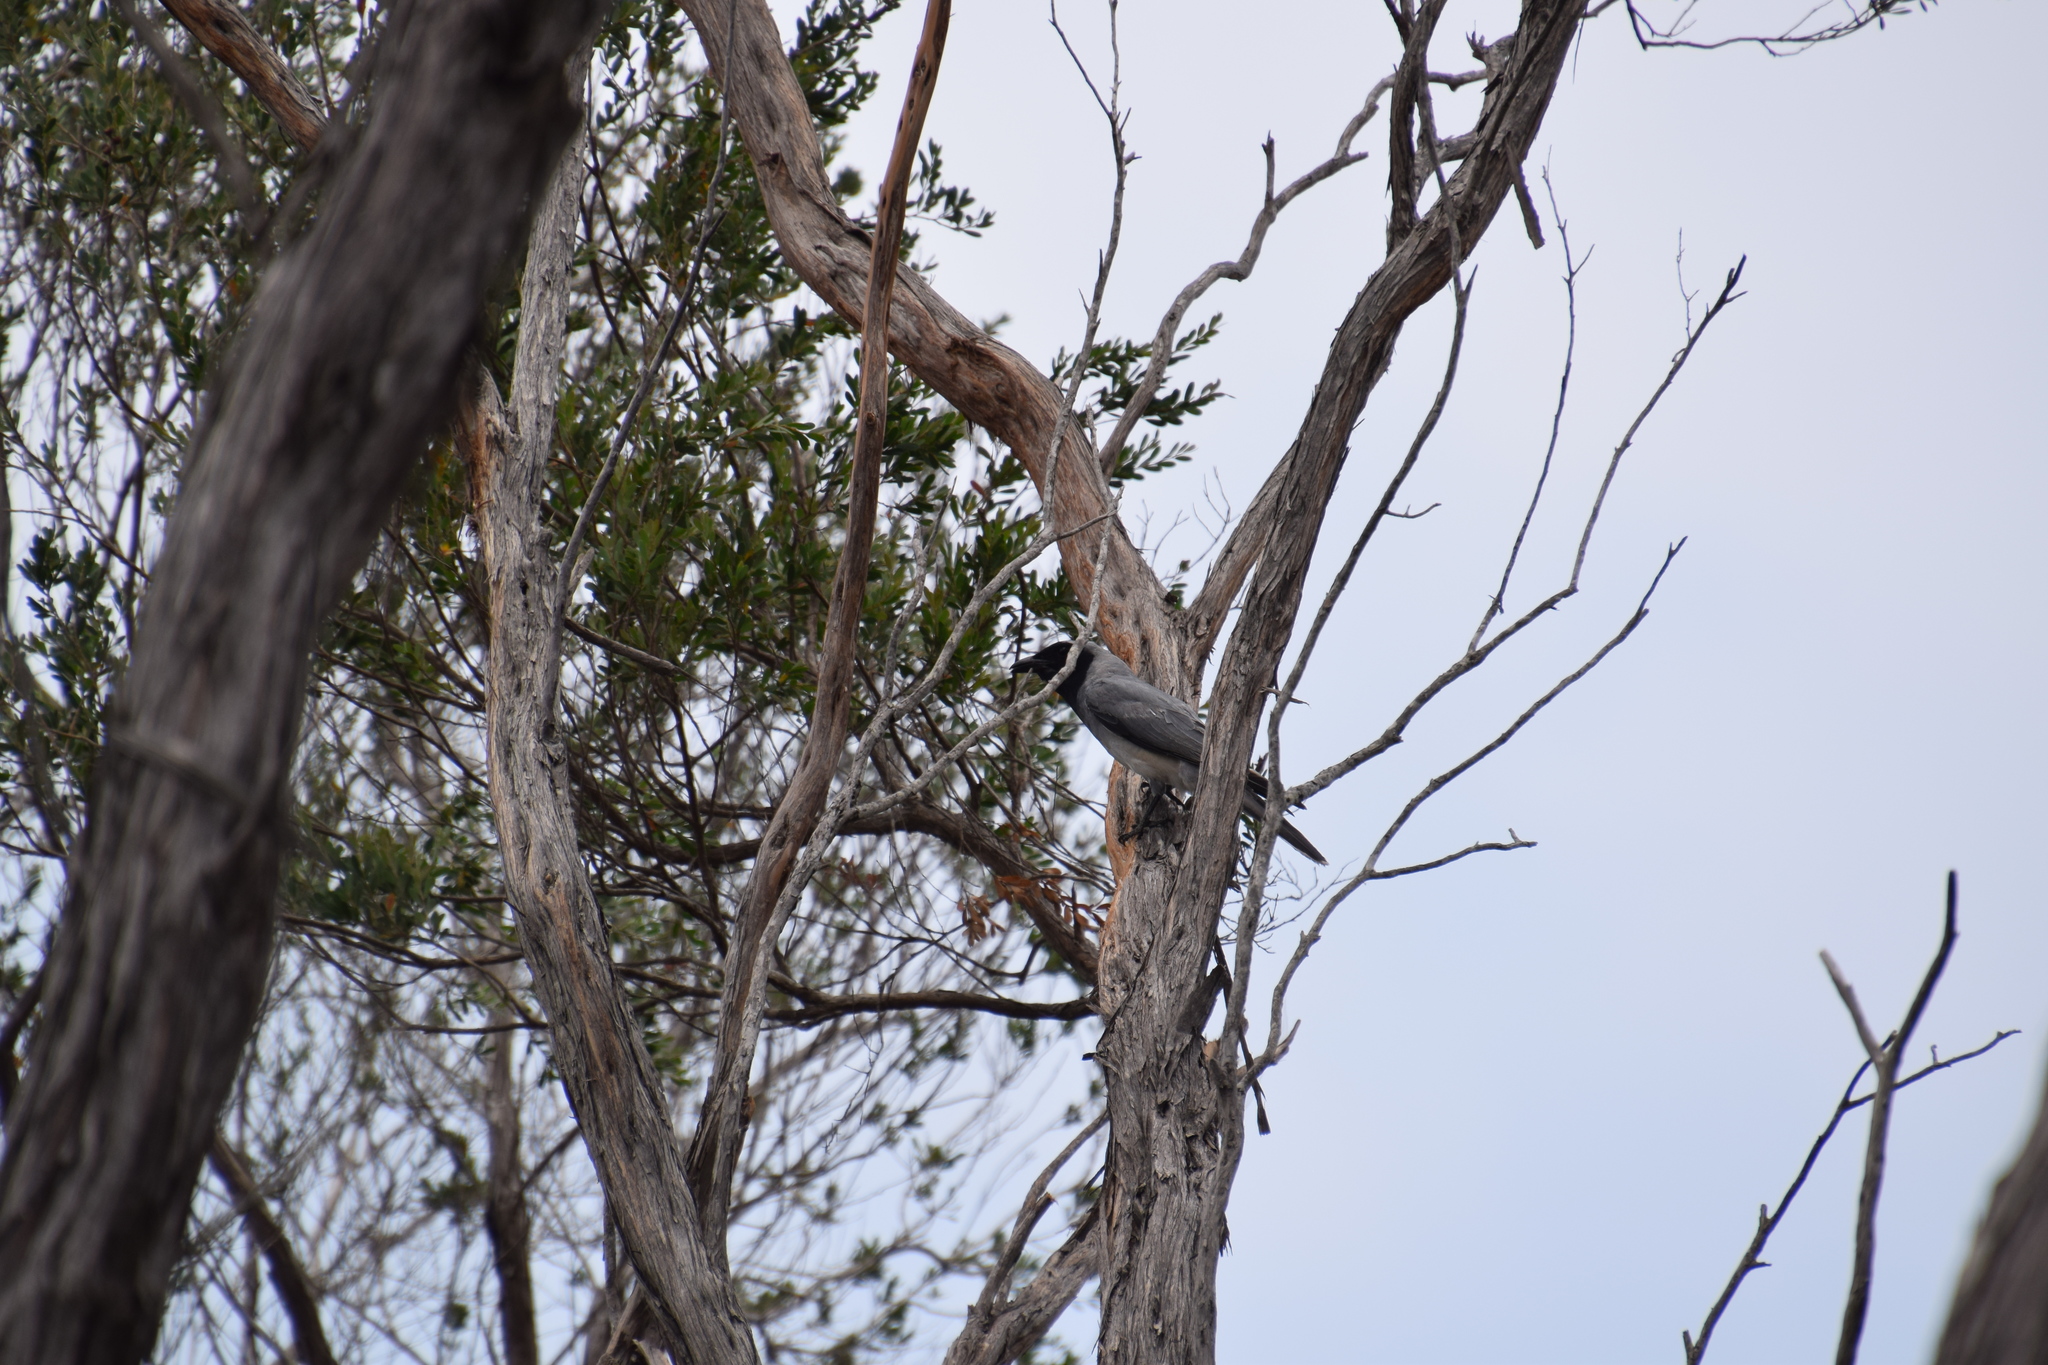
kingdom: Animalia
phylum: Chordata
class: Aves
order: Passeriformes
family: Campephagidae
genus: Coracina
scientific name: Coracina novaehollandiae
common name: Black-faced cuckooshrike
